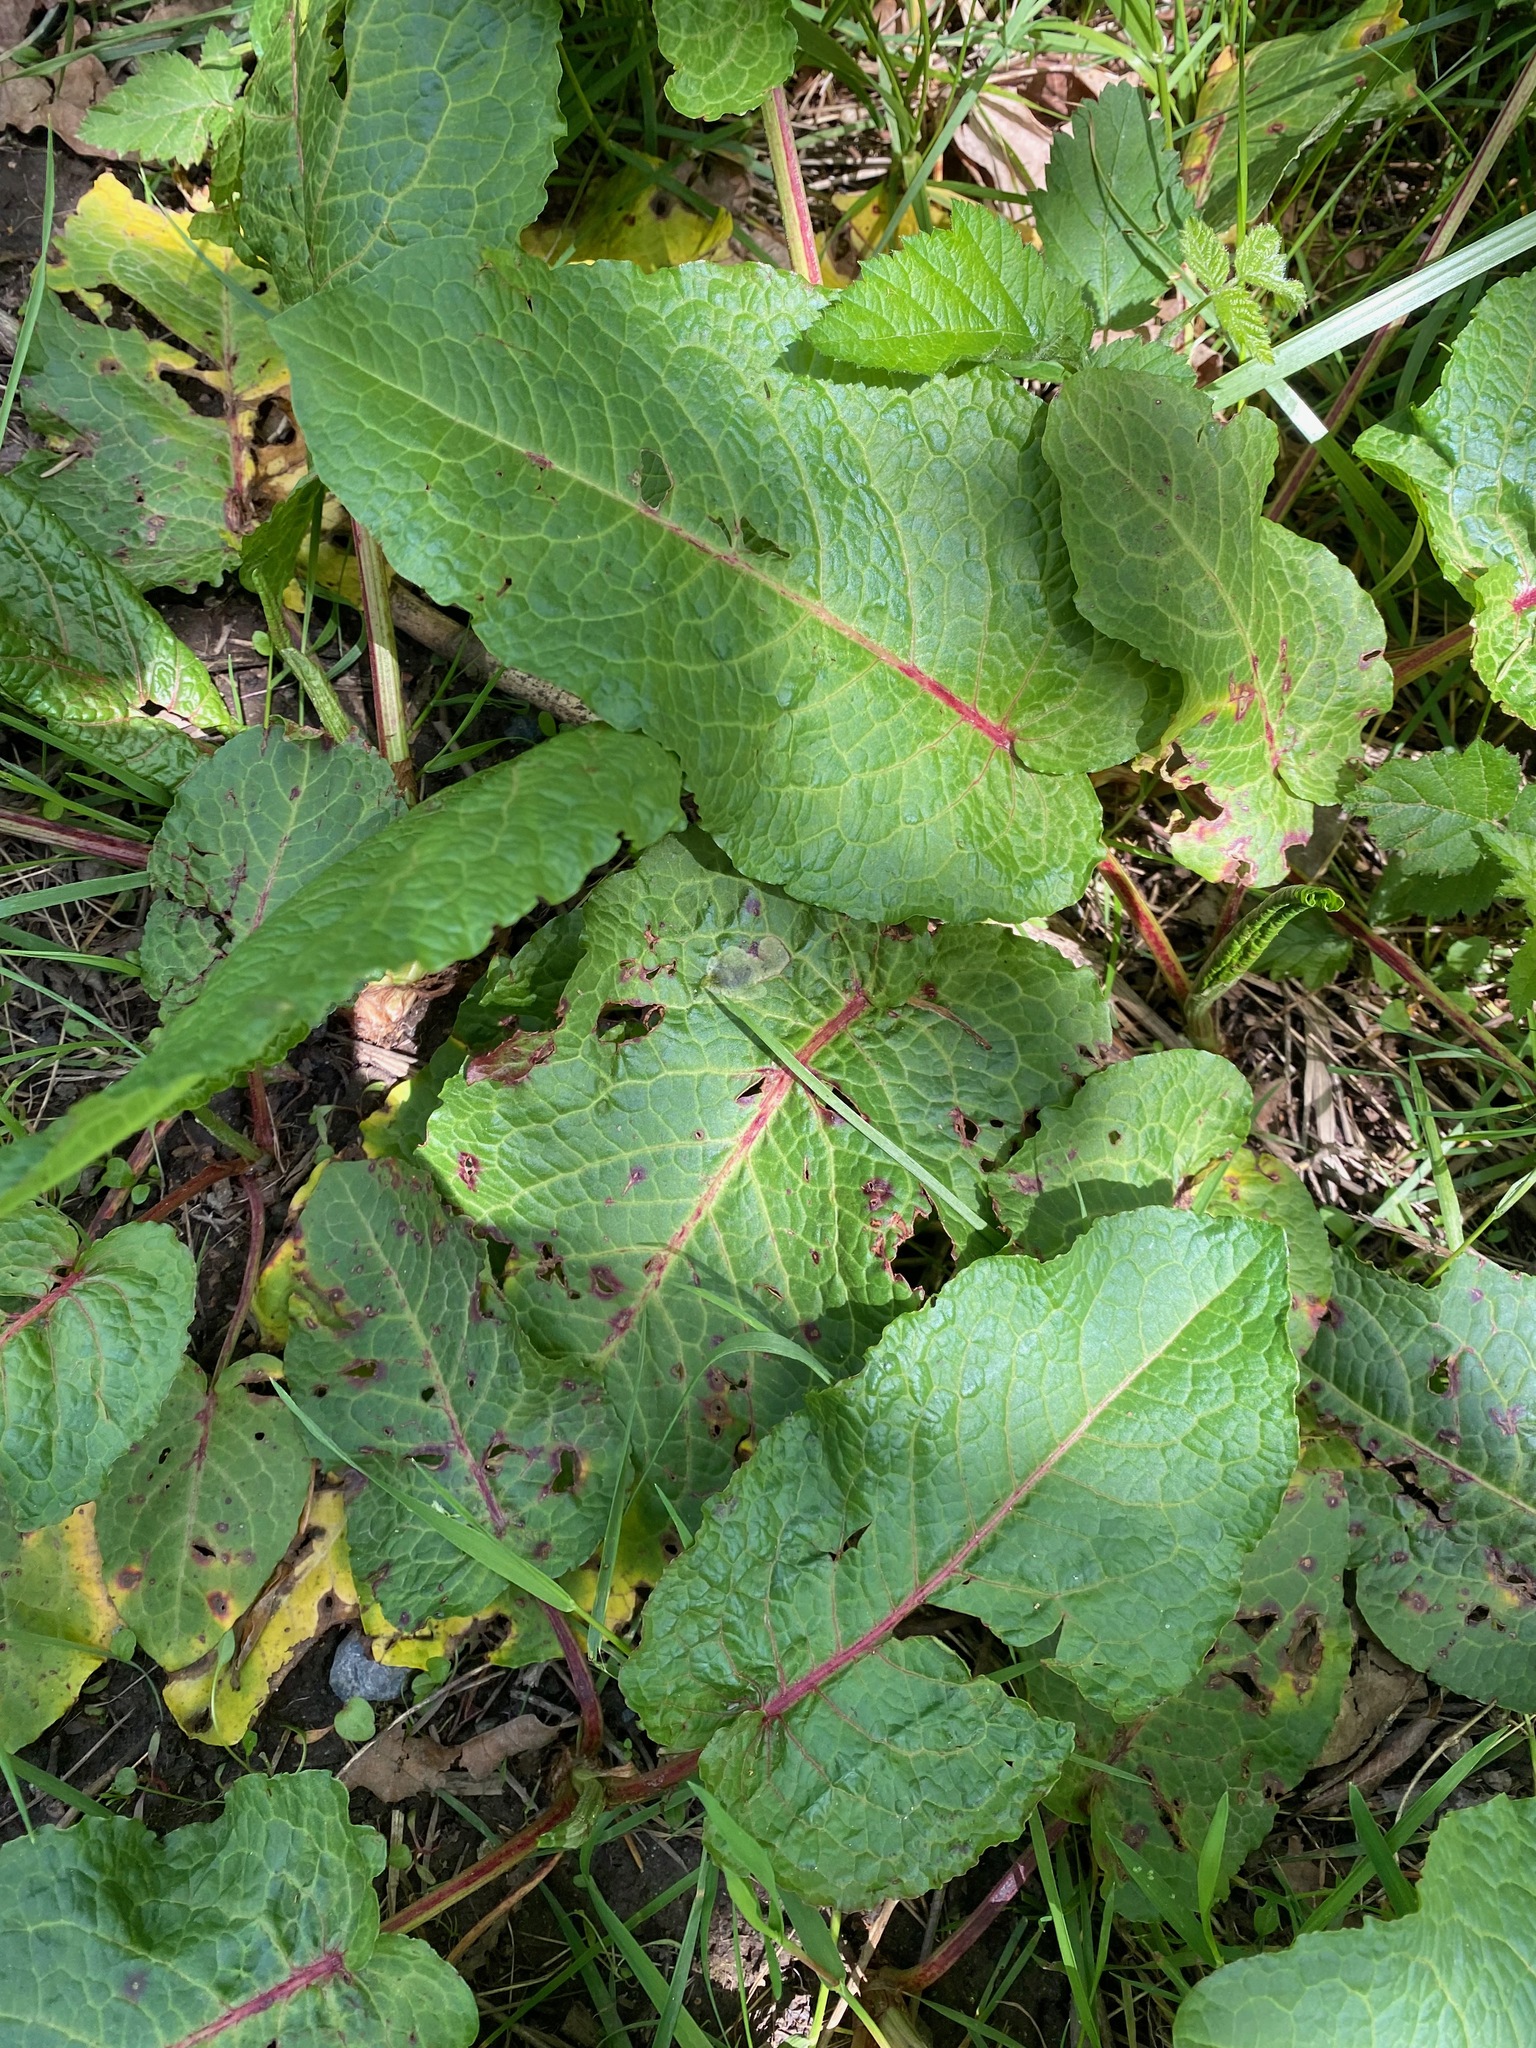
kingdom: Plantae
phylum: Tracheophyta
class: Magnoliopsida
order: Caryophyllales
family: Polygonaceae
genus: Rumex
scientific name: Rumex obtusifolius
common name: Bitter dock
